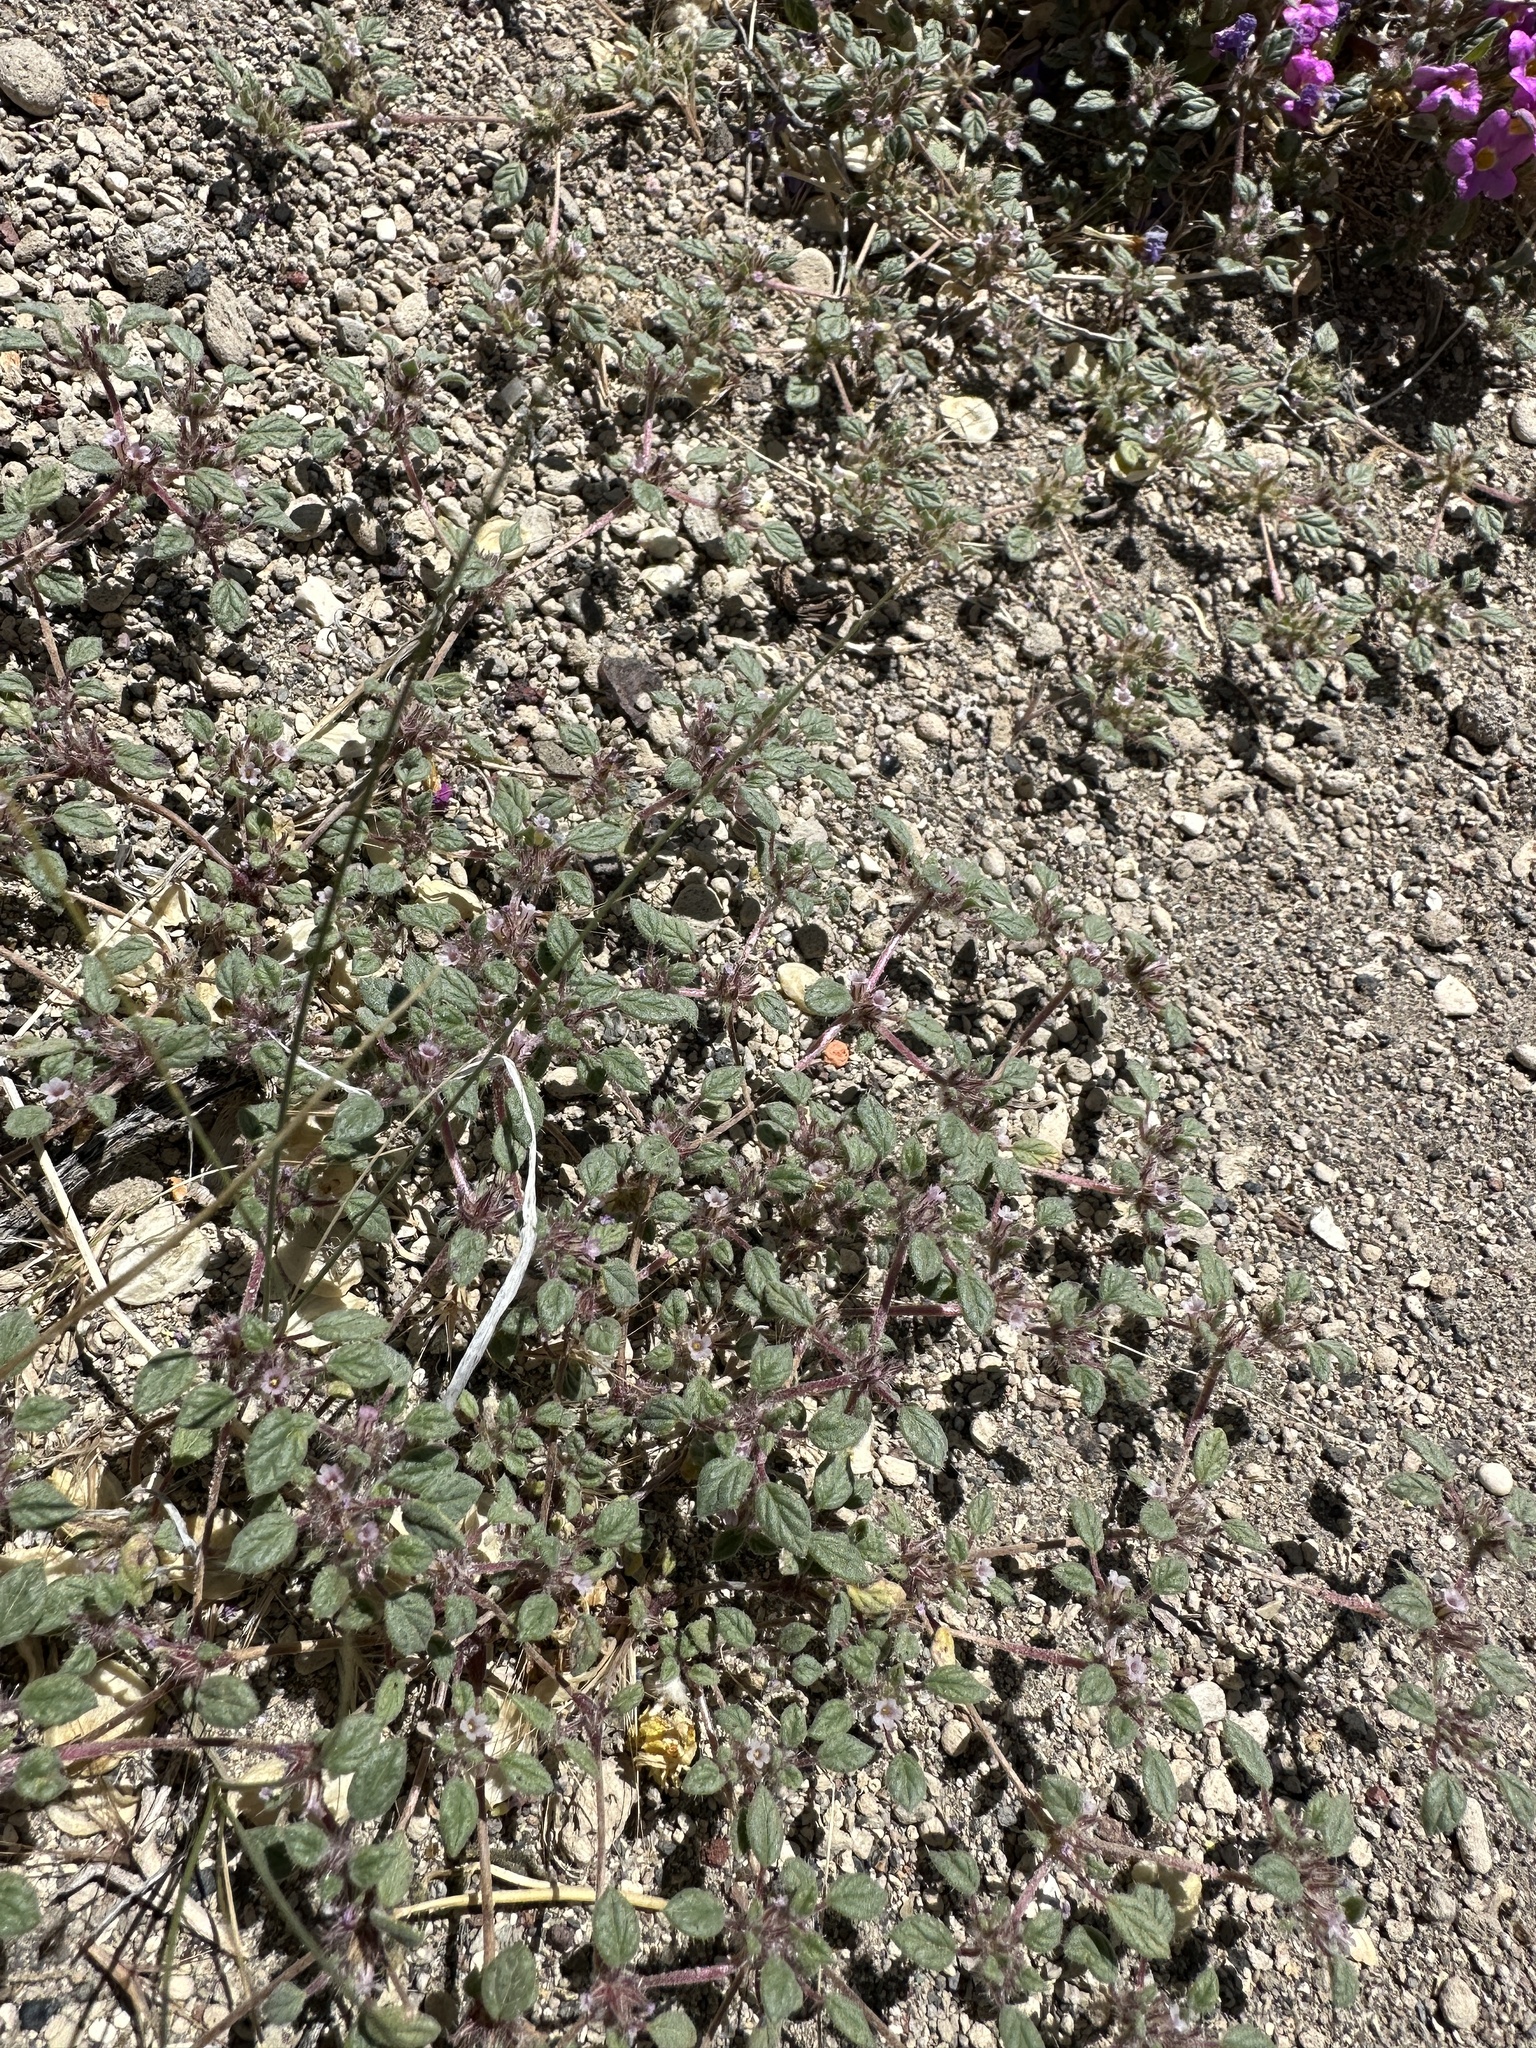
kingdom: Plantae
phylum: Tracheophyta
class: Magnoliopsida
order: Boraginales
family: Ehretiaceae
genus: Tiquilia
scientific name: Tiquilia nuttallii
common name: Rosette tiquilia
